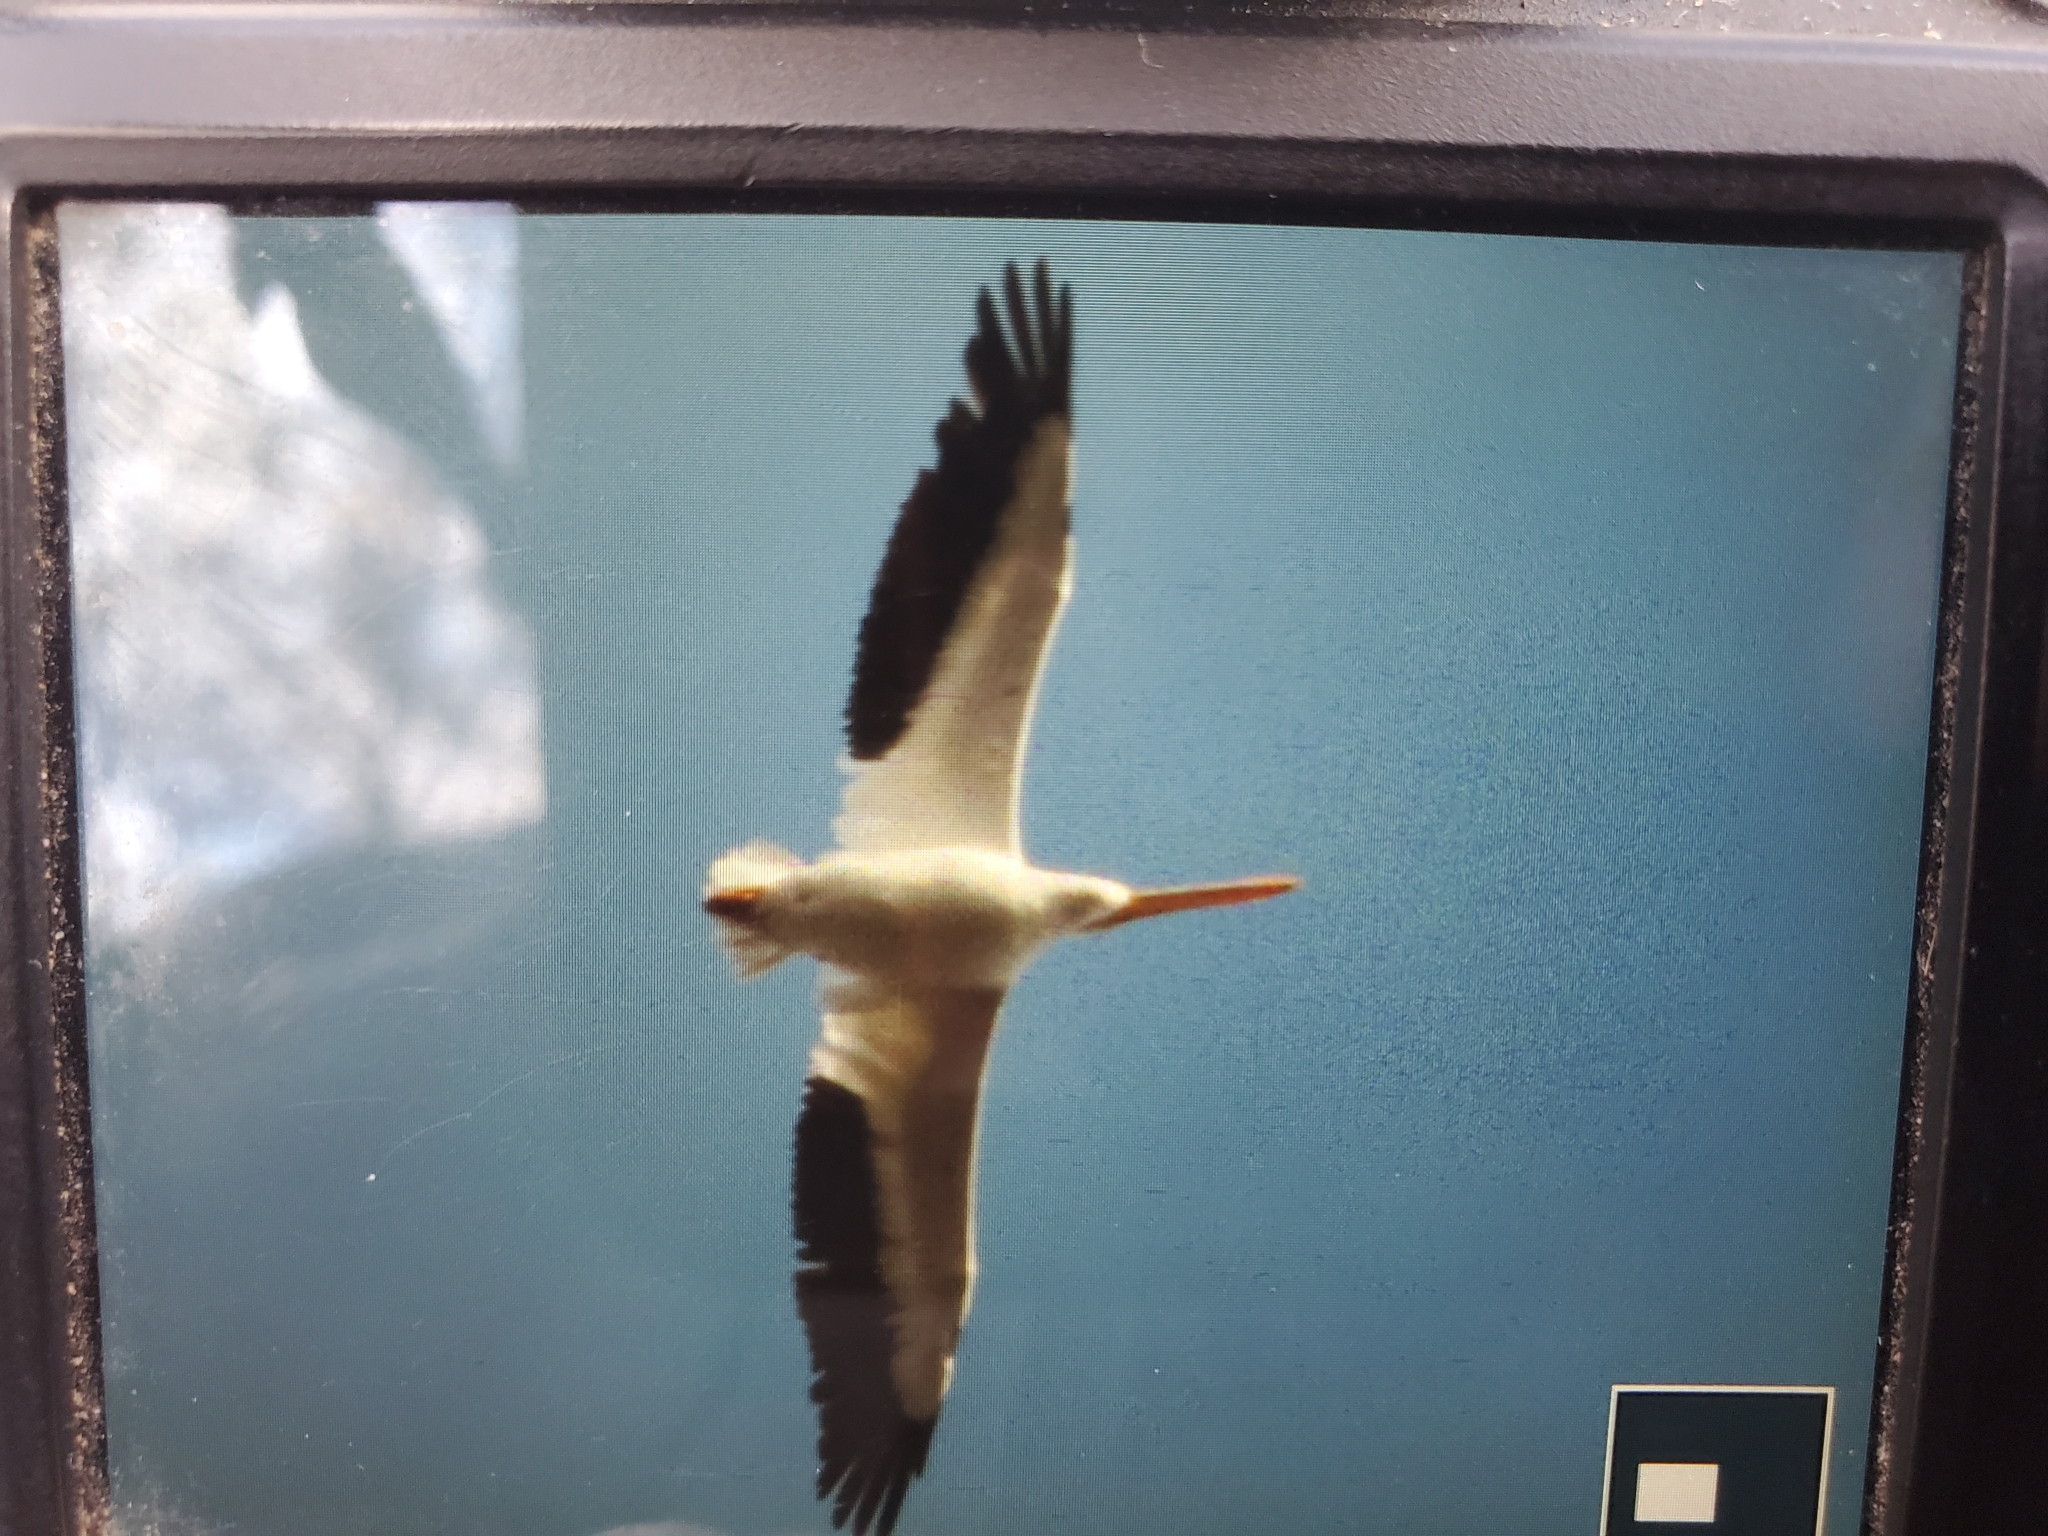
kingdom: Animalia
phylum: Chordata
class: Aves
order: Pelecaniformes
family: Pelecanidae
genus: Pelecanus
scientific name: Pelecanus erythrorhynchos
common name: American white pelican
